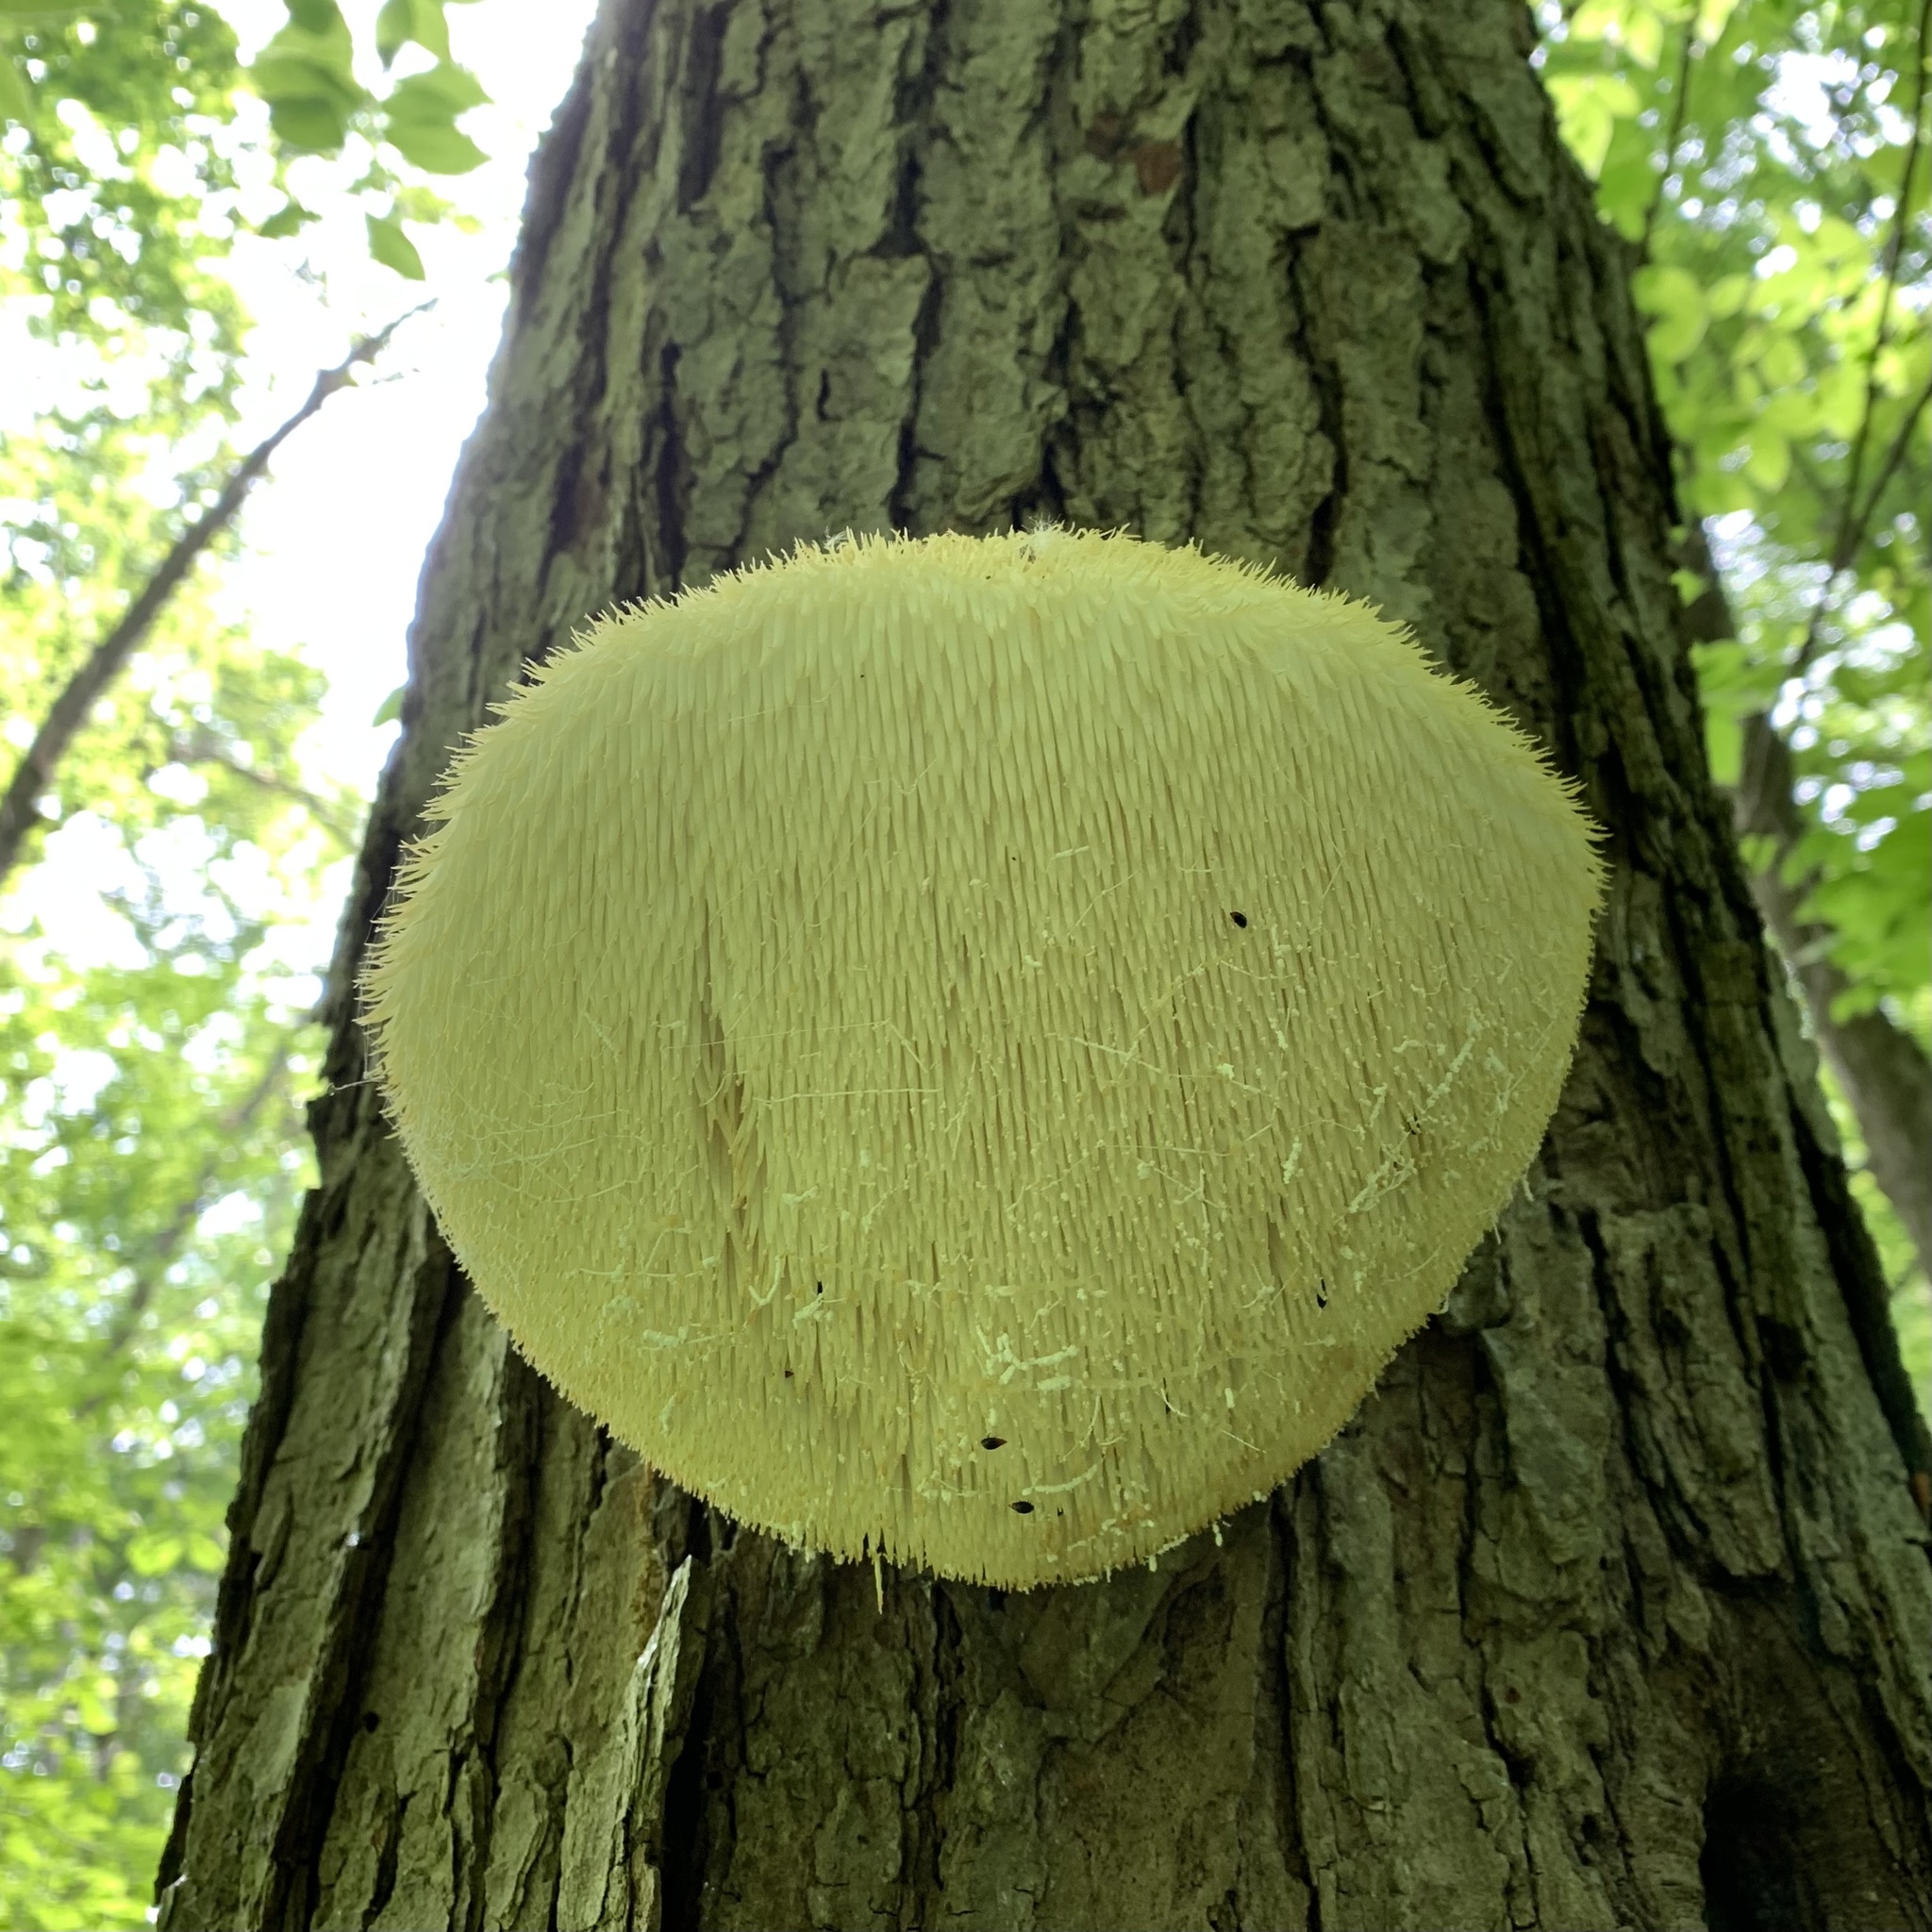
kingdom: Fungi
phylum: Basidiomycota
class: Agaricomycetes
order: Russulales
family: Hericiaceae
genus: Hericium
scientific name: Hericium erinaceus
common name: Bearded tooth
